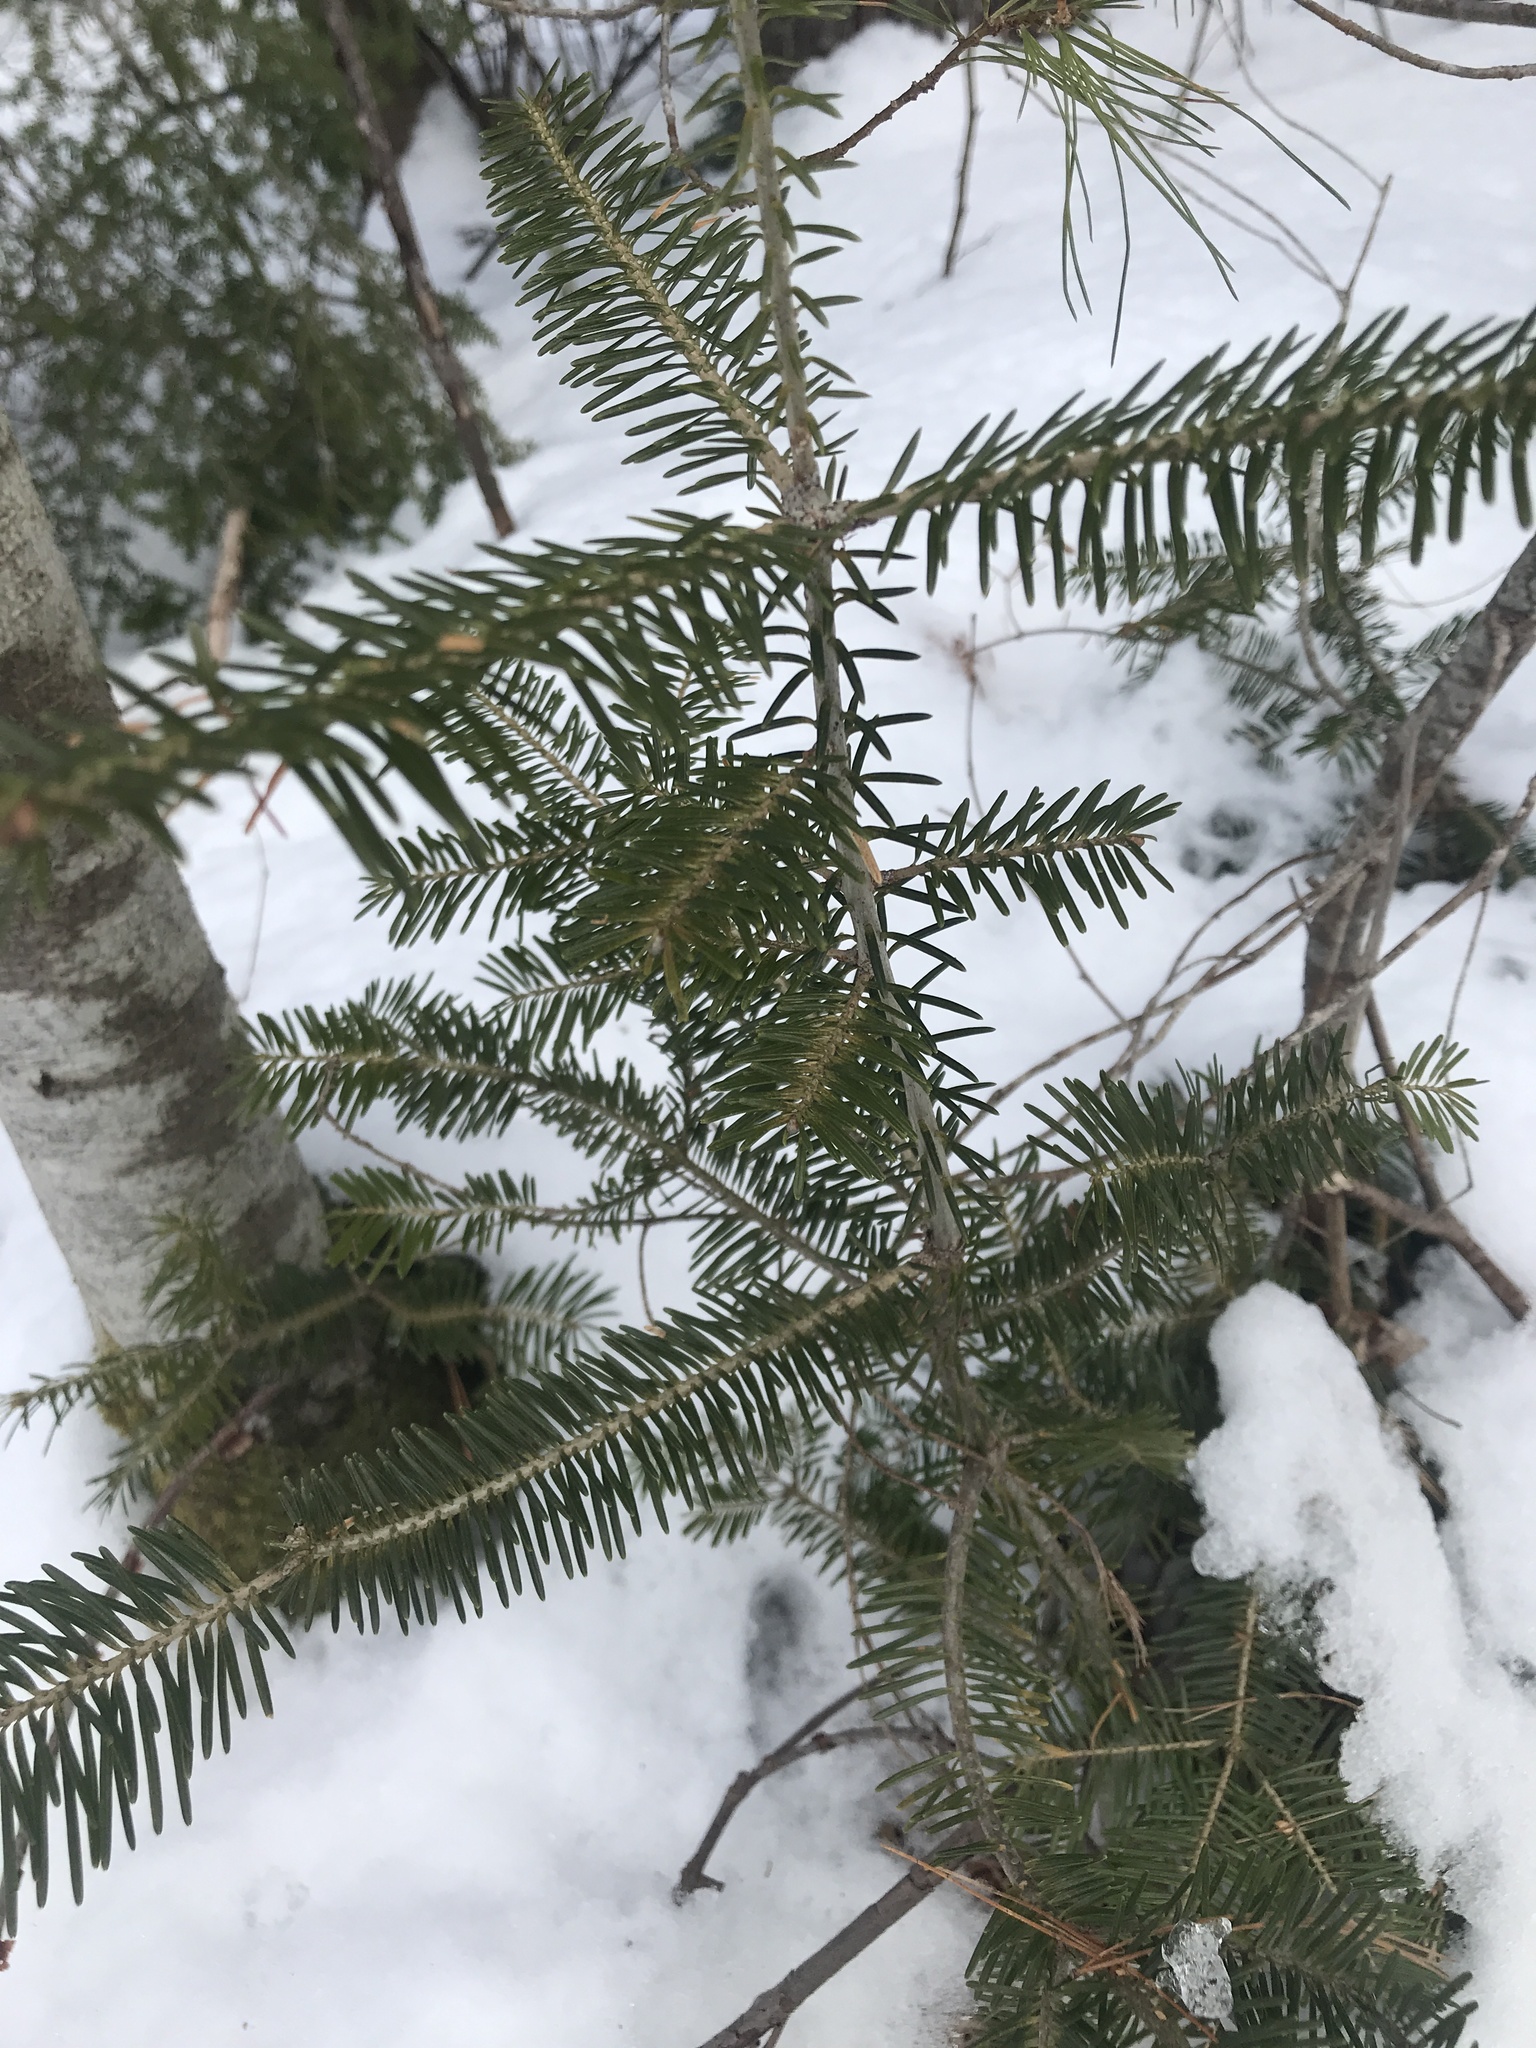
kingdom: Plantae
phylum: Tracheophyta
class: Pinopsida
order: Pinales
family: Pinaceae
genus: Abies
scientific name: Abies balsamea
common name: Balsam fir
